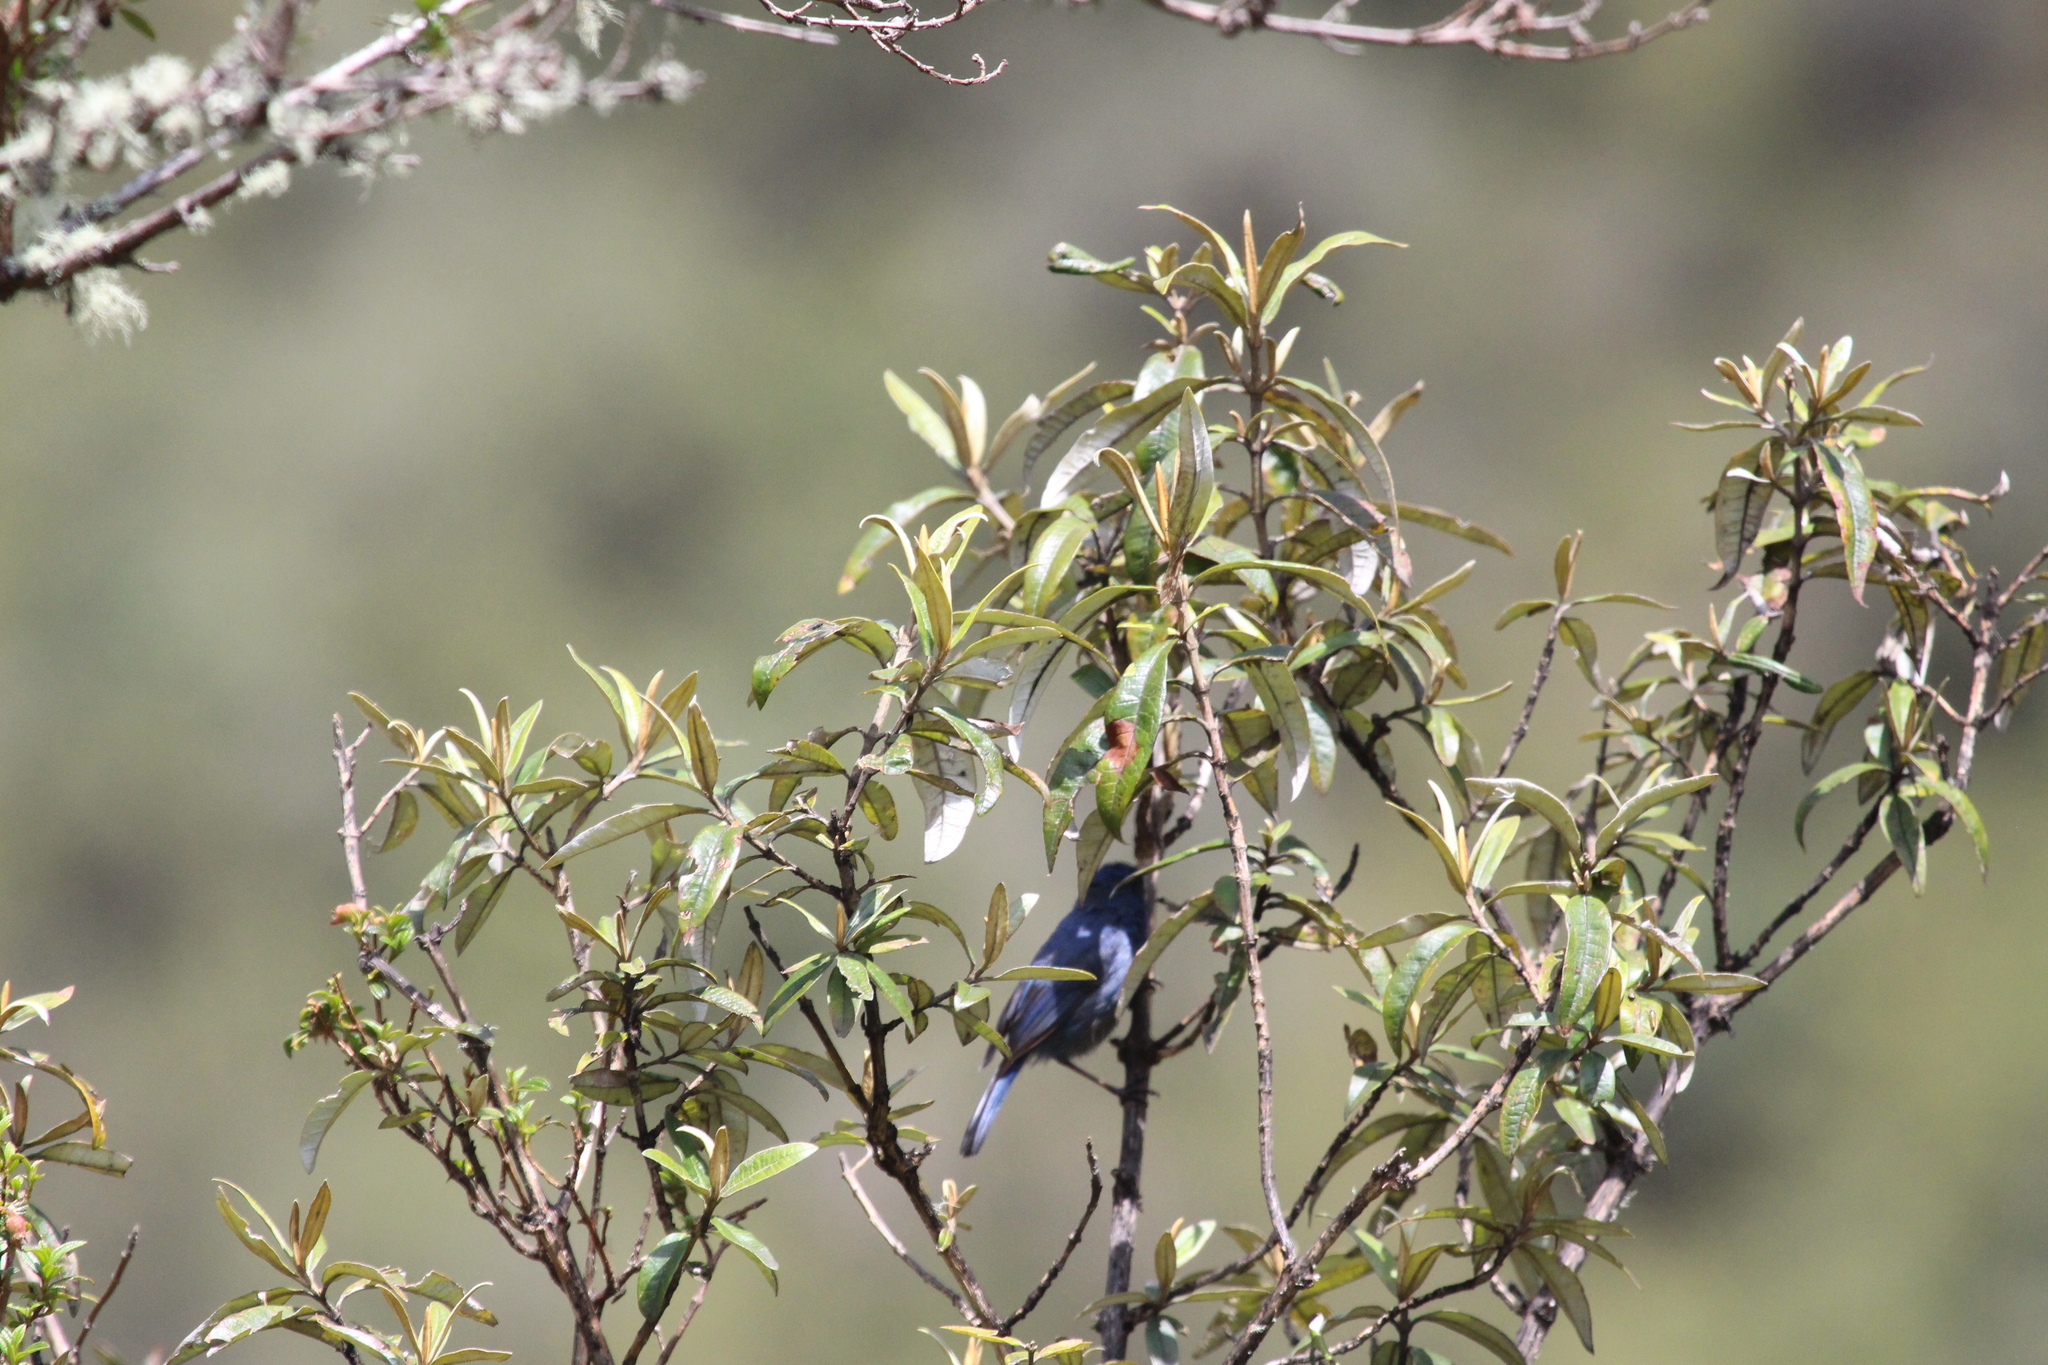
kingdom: Animalia
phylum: Chordata
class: Aves
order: Passeriformes
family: Thraupidae
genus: Xenodacnis
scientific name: Xenodacnis parina
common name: Tit-like dacnis
